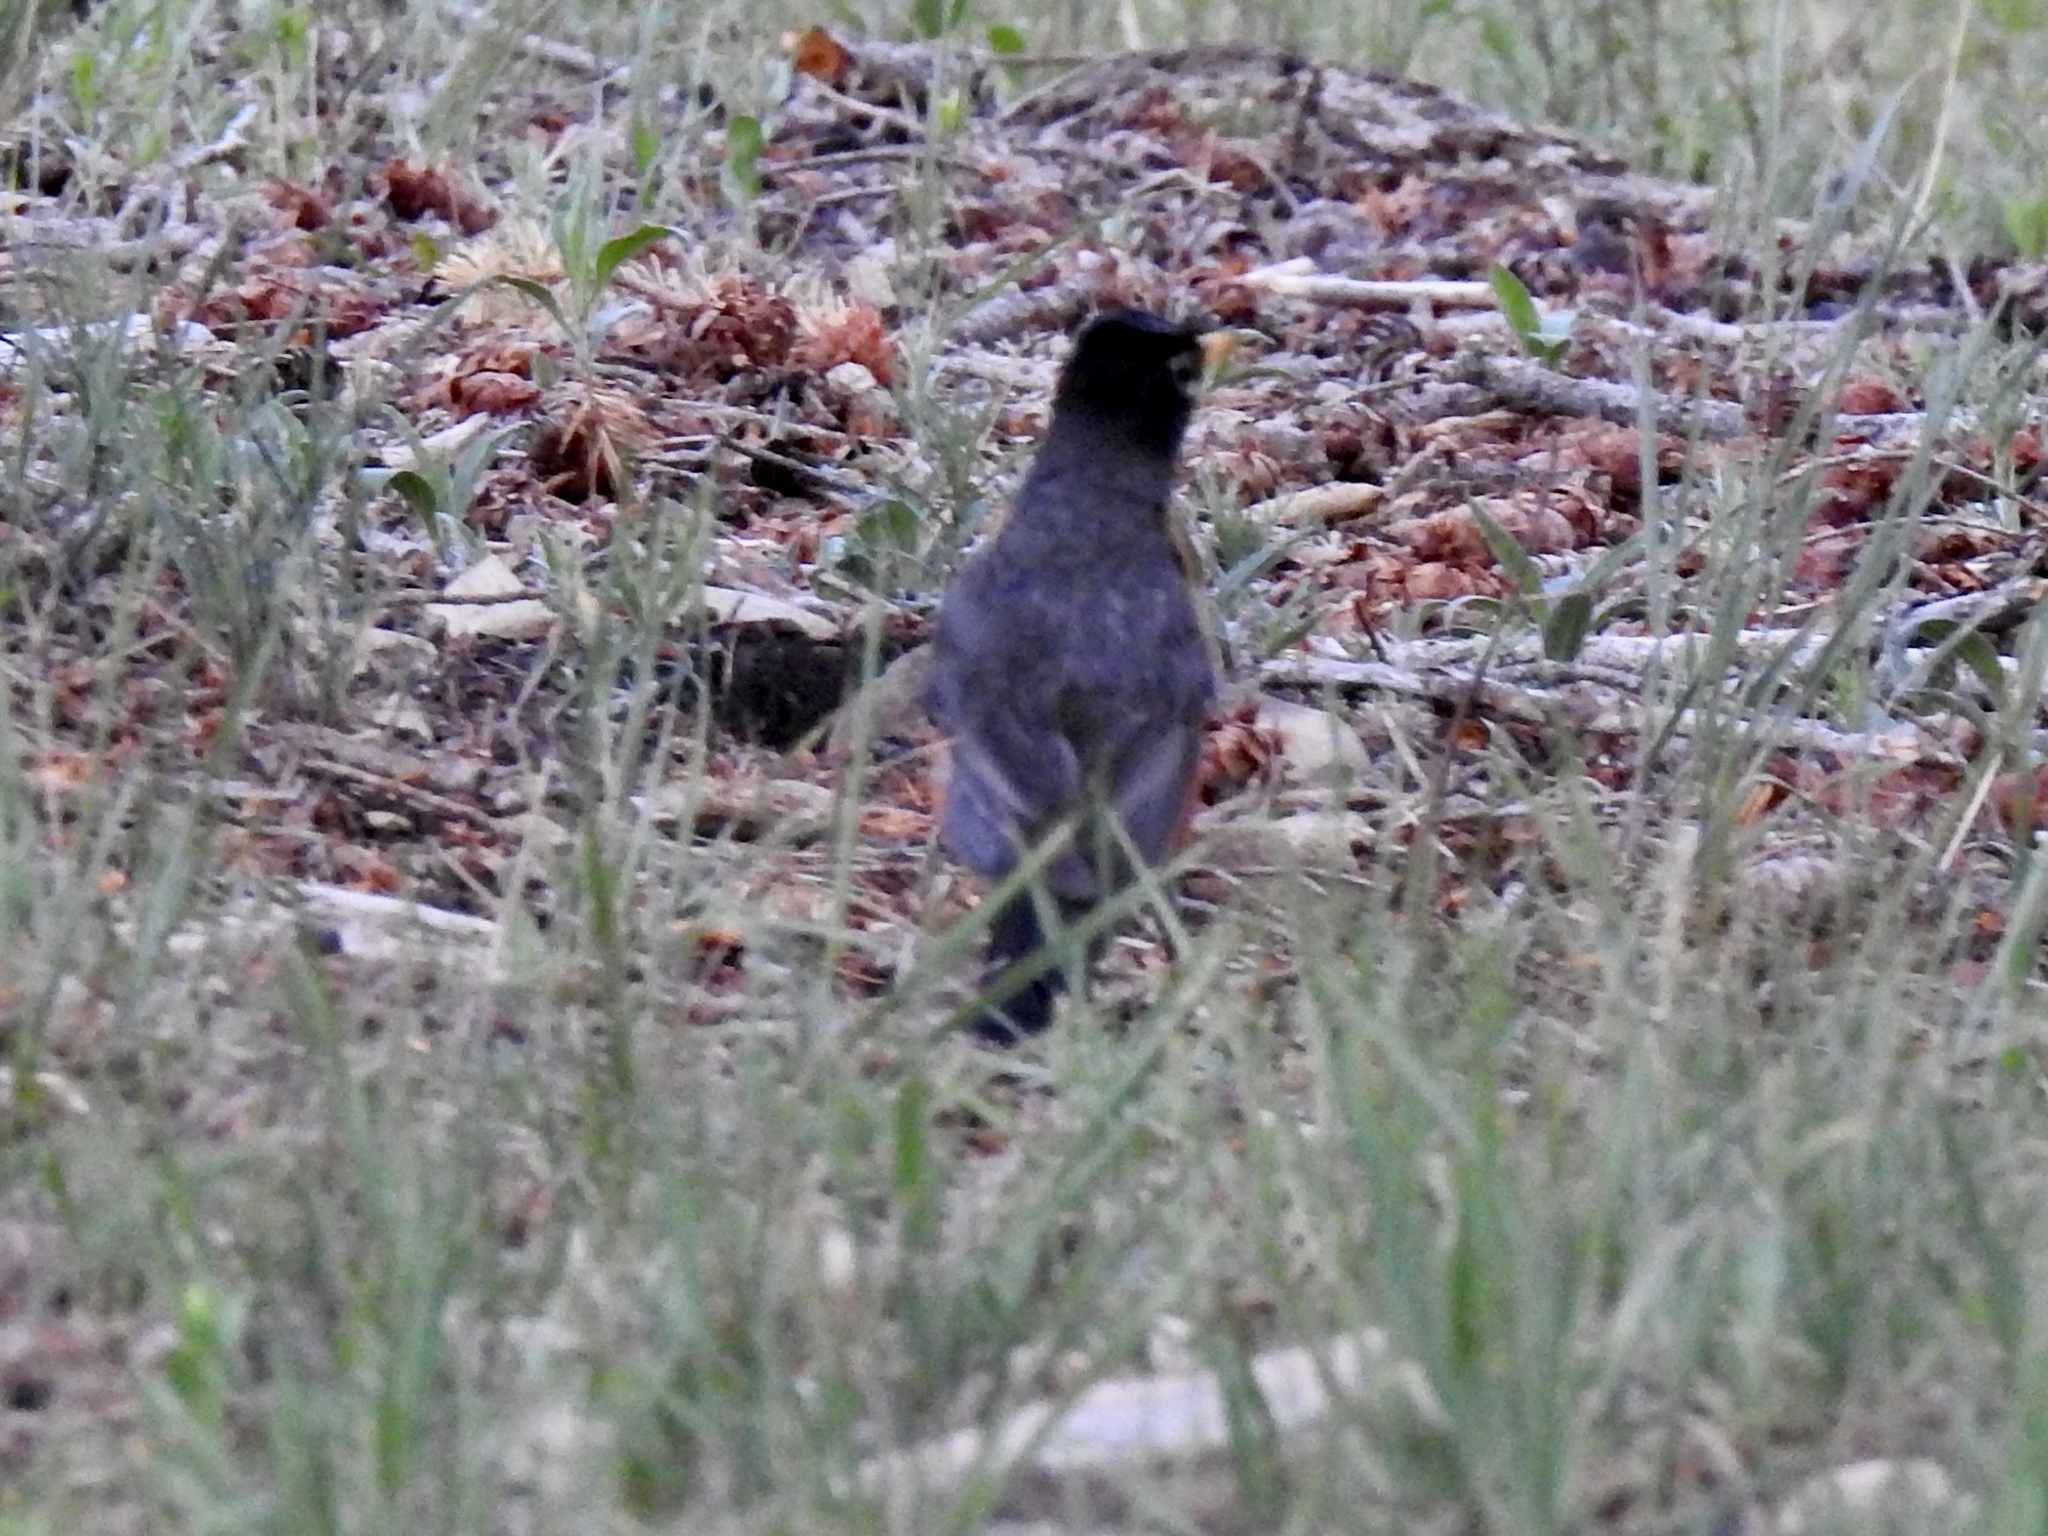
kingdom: Animalia
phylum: Chordata
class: Aves
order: Passeriformes
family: Turdidae
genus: Turdus
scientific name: Turdus migratorius
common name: American robin
